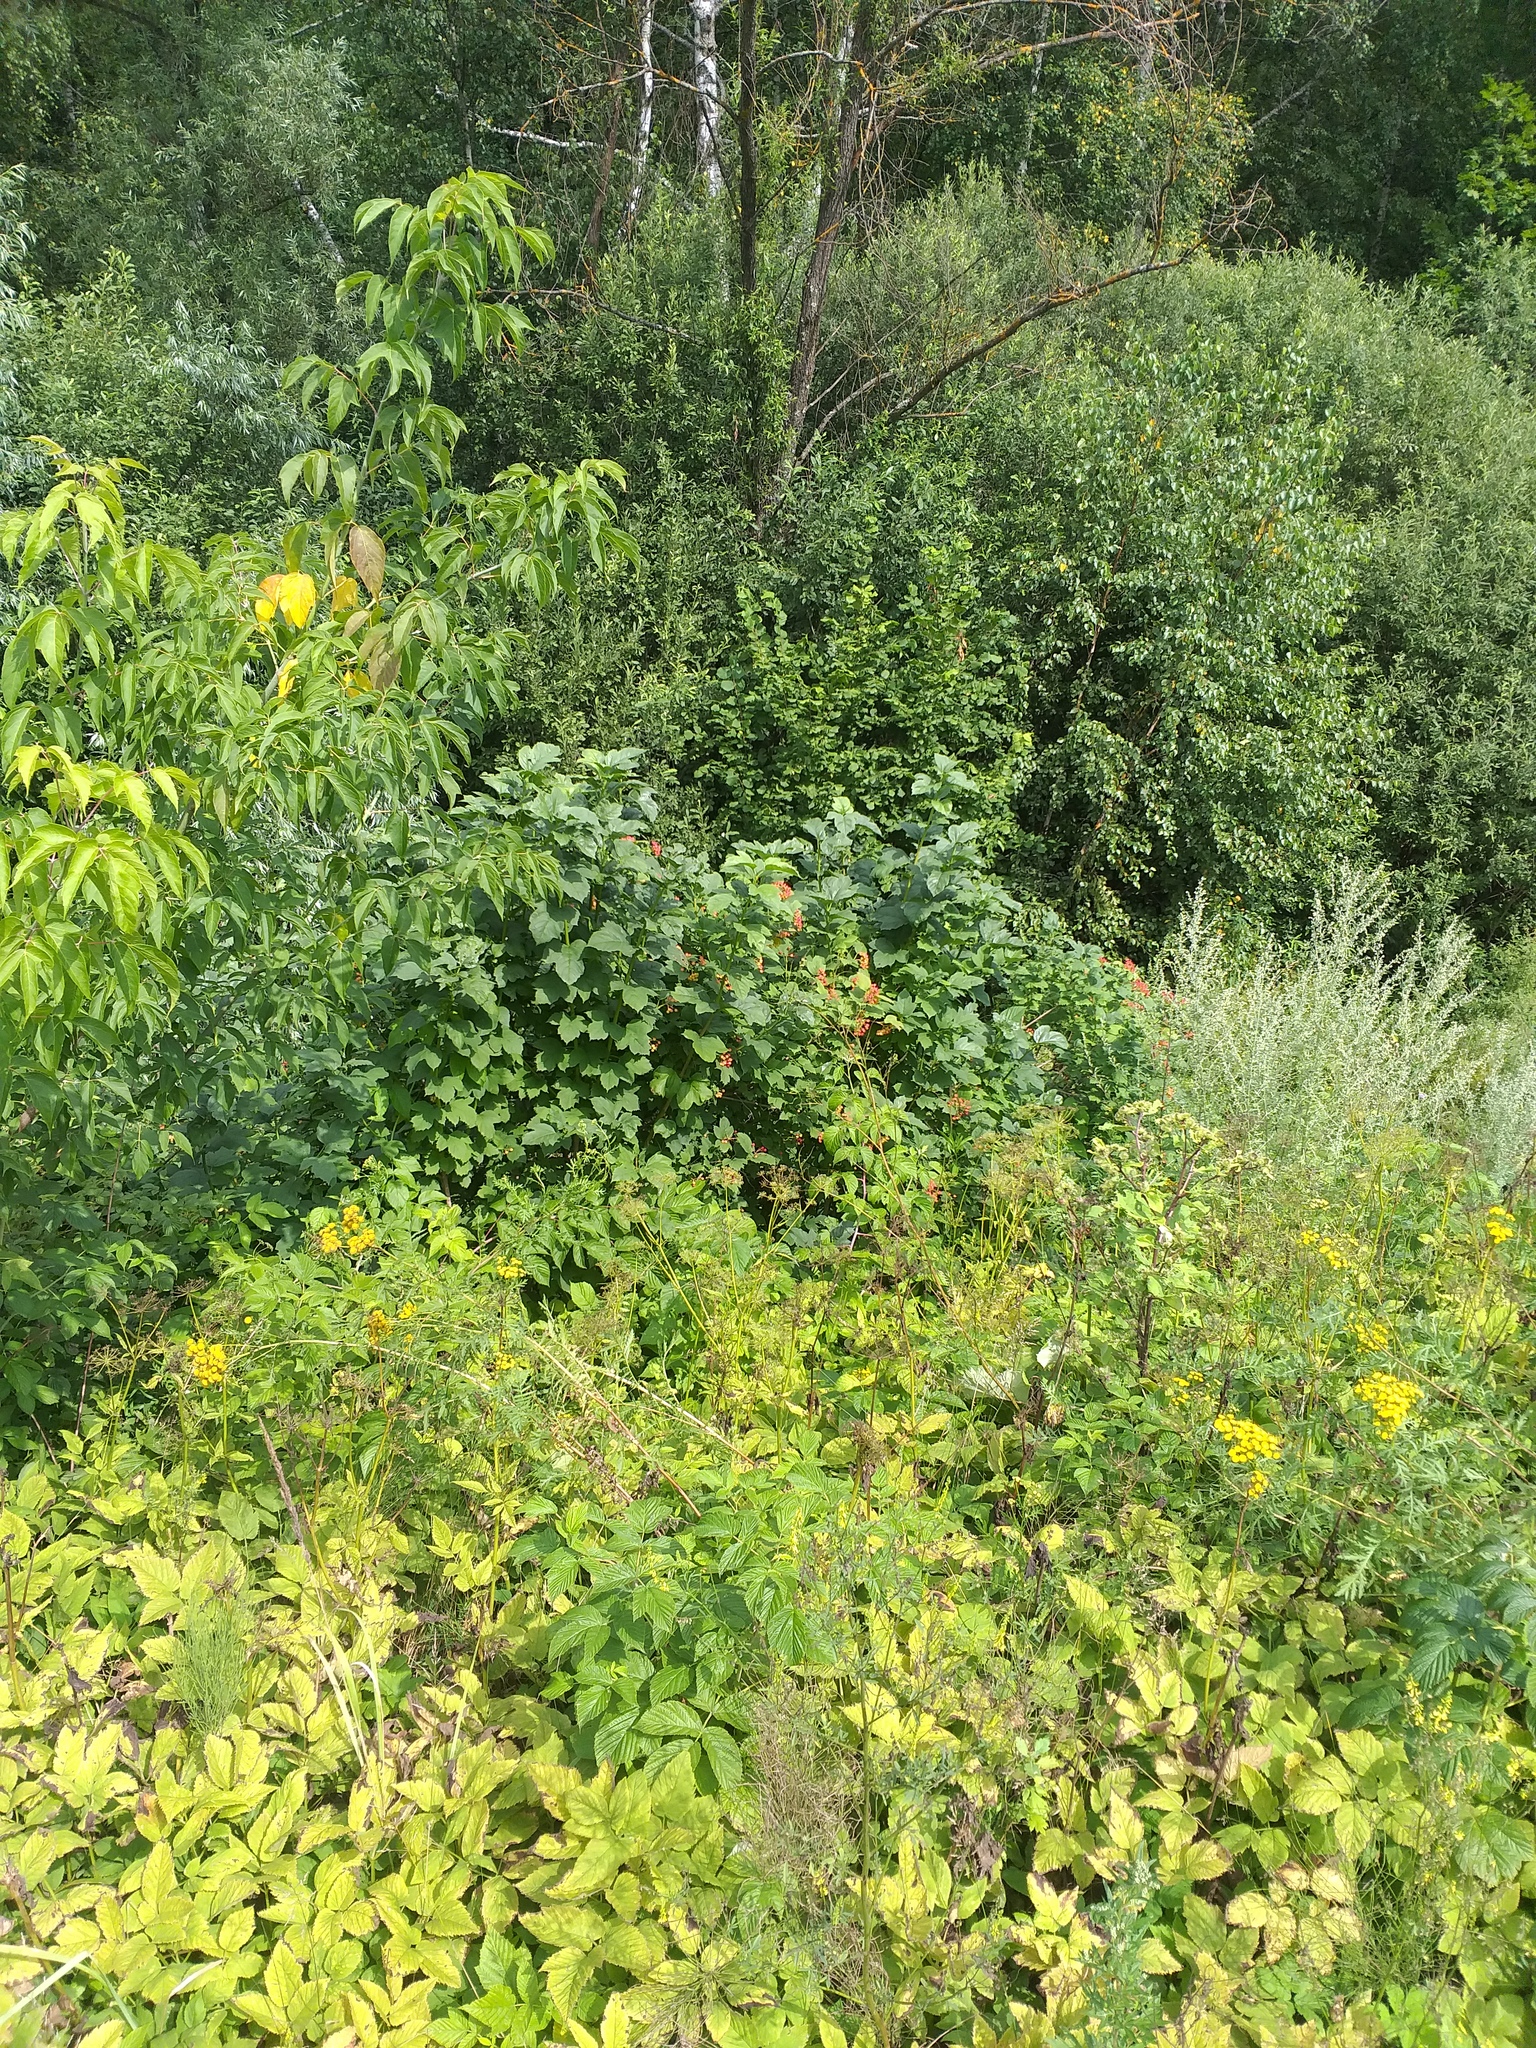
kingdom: Plantae
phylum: Tracheophyta
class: Magnoliopsida
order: Dipsacales
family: Viburnaceae
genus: Viburnum
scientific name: Viburnum opulus
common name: Guelder-rose
